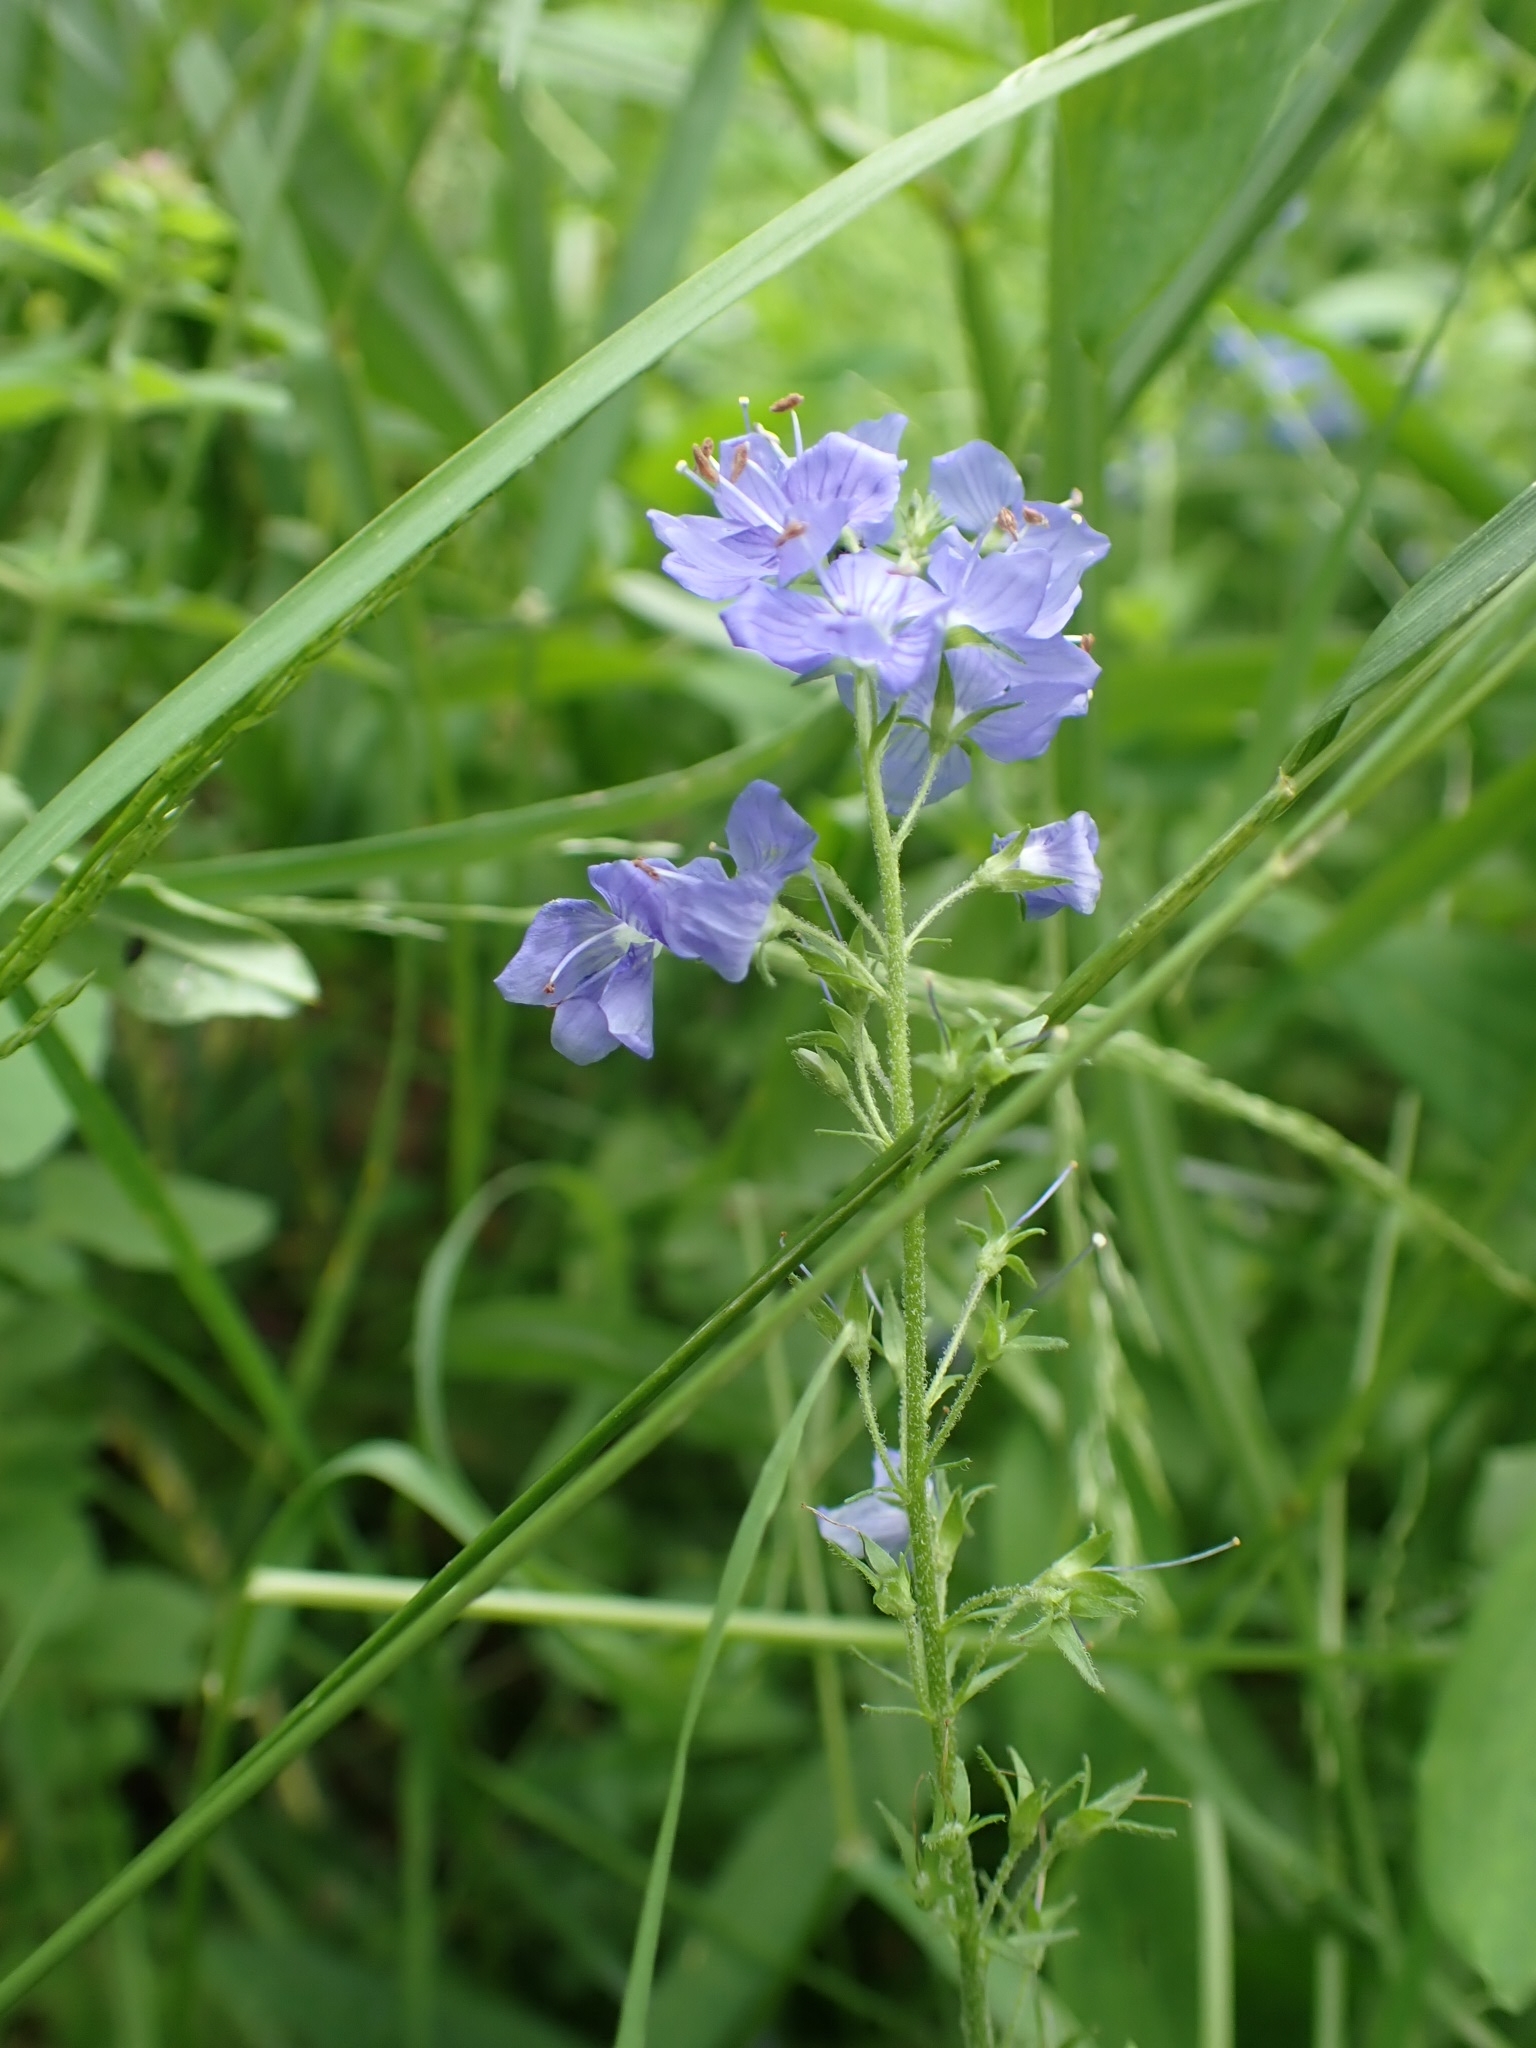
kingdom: Plantae
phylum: Tracheophyta
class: Magnoliopsida
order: Lamiales
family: Plantaginaceae
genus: Veronica
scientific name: Veronica teucrium
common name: Large speedwell
